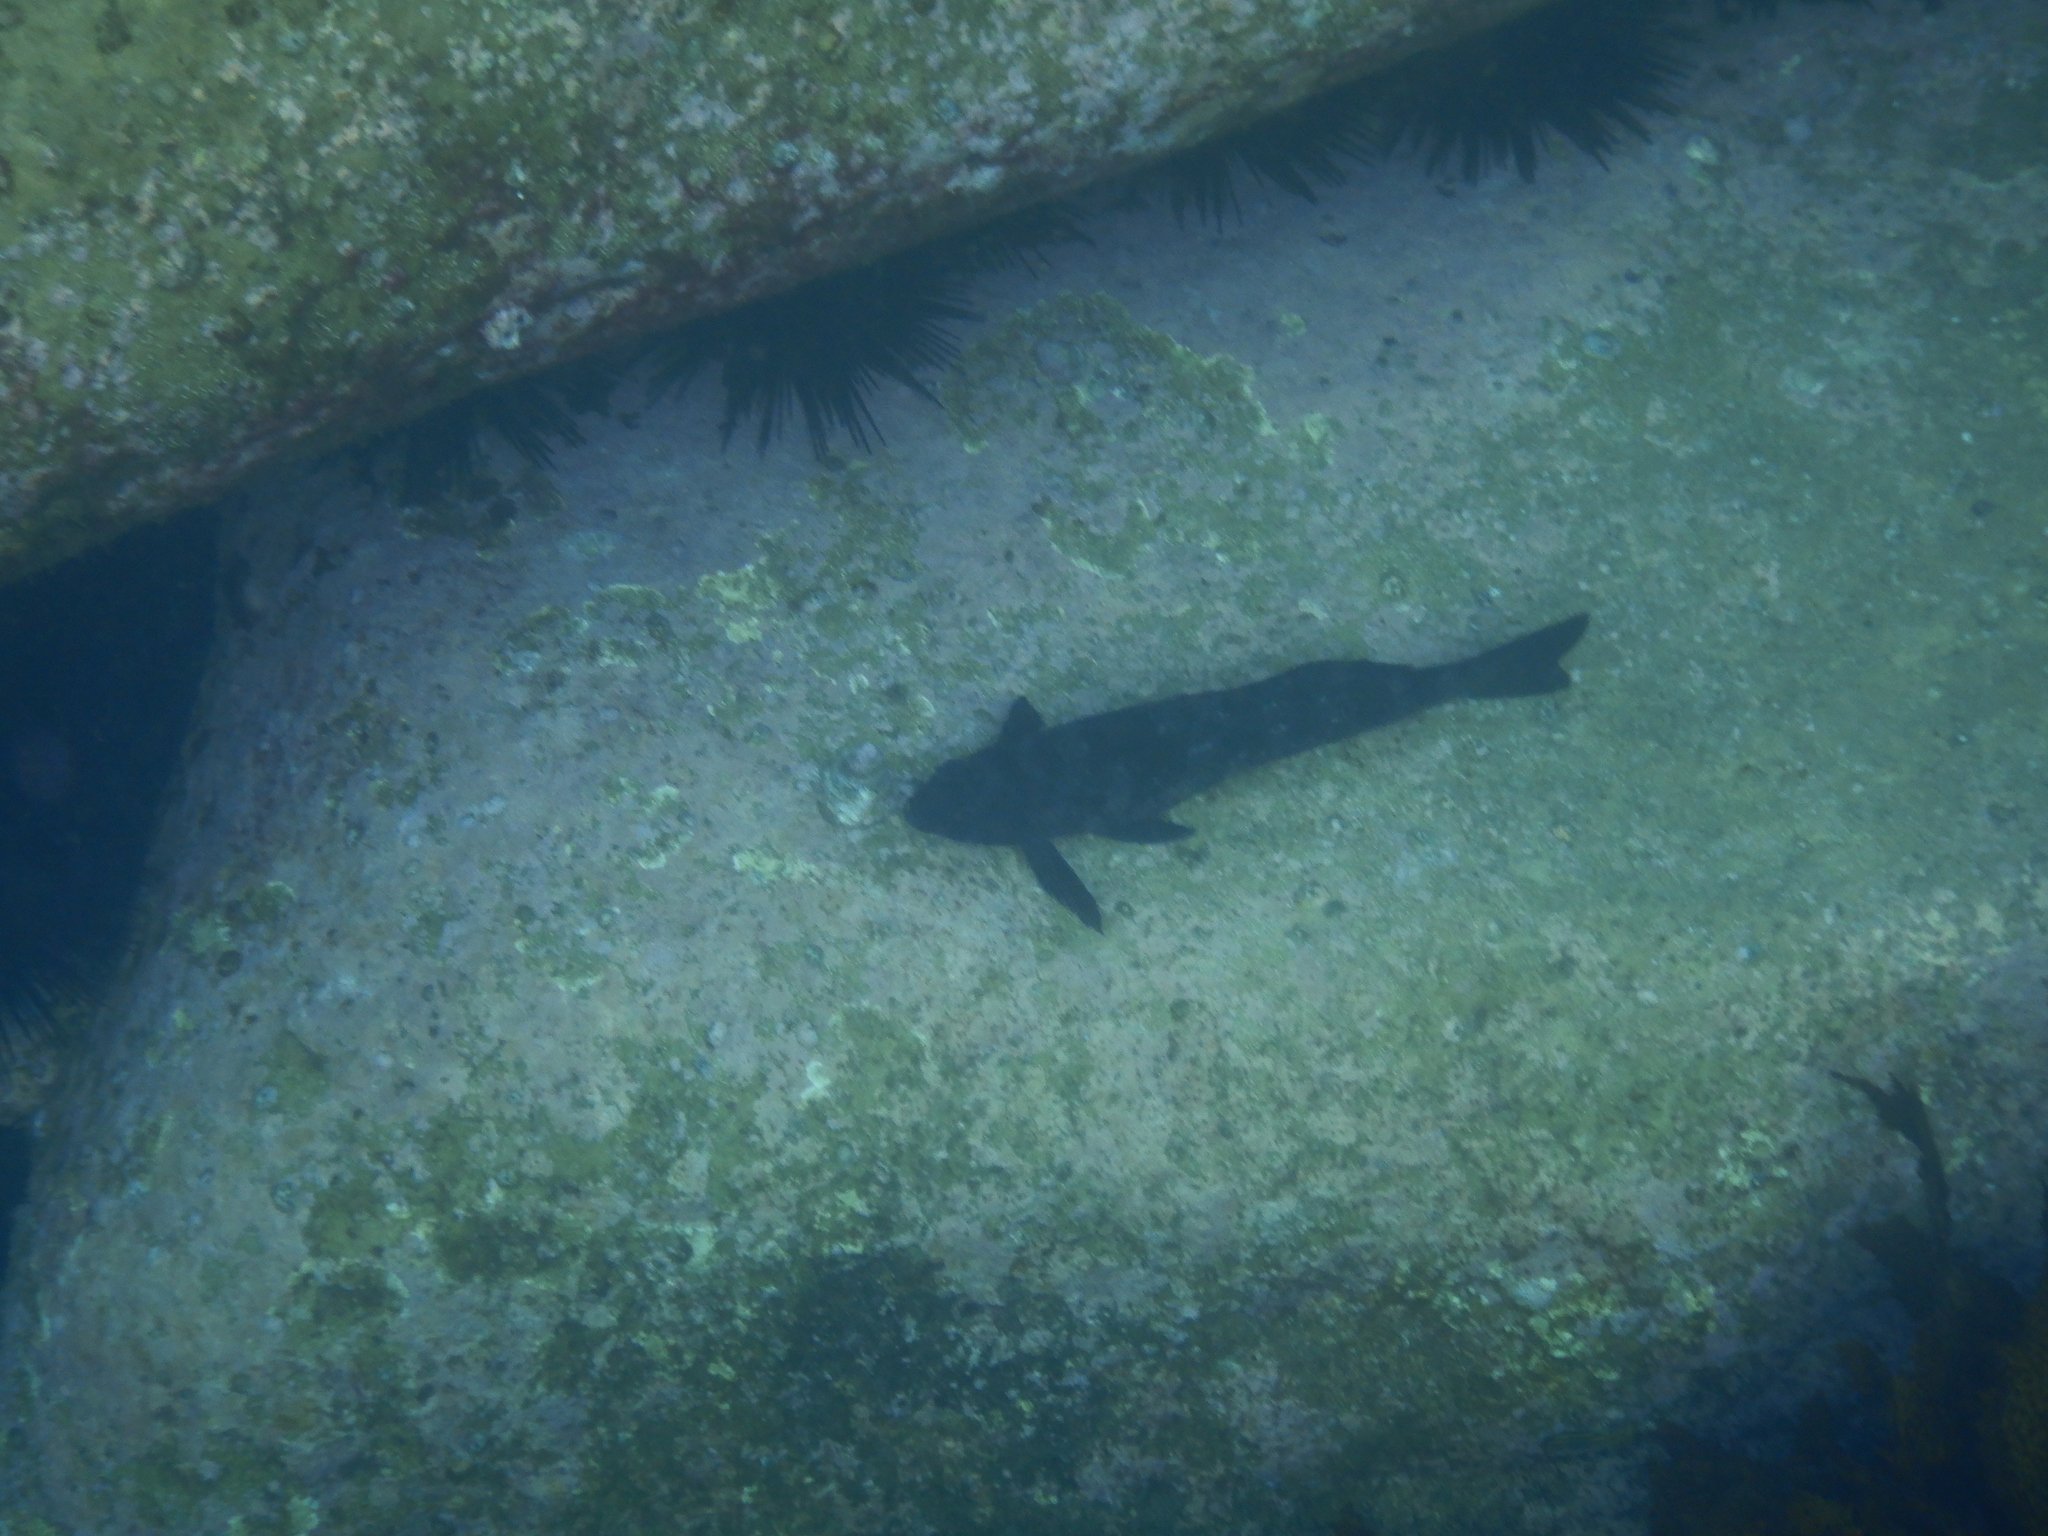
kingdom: Animalia
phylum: Chordata
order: Perciformes
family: Aplodactylidae
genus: Aplodactylus
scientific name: Aplodactylus lophodon
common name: Cockatoo fish
